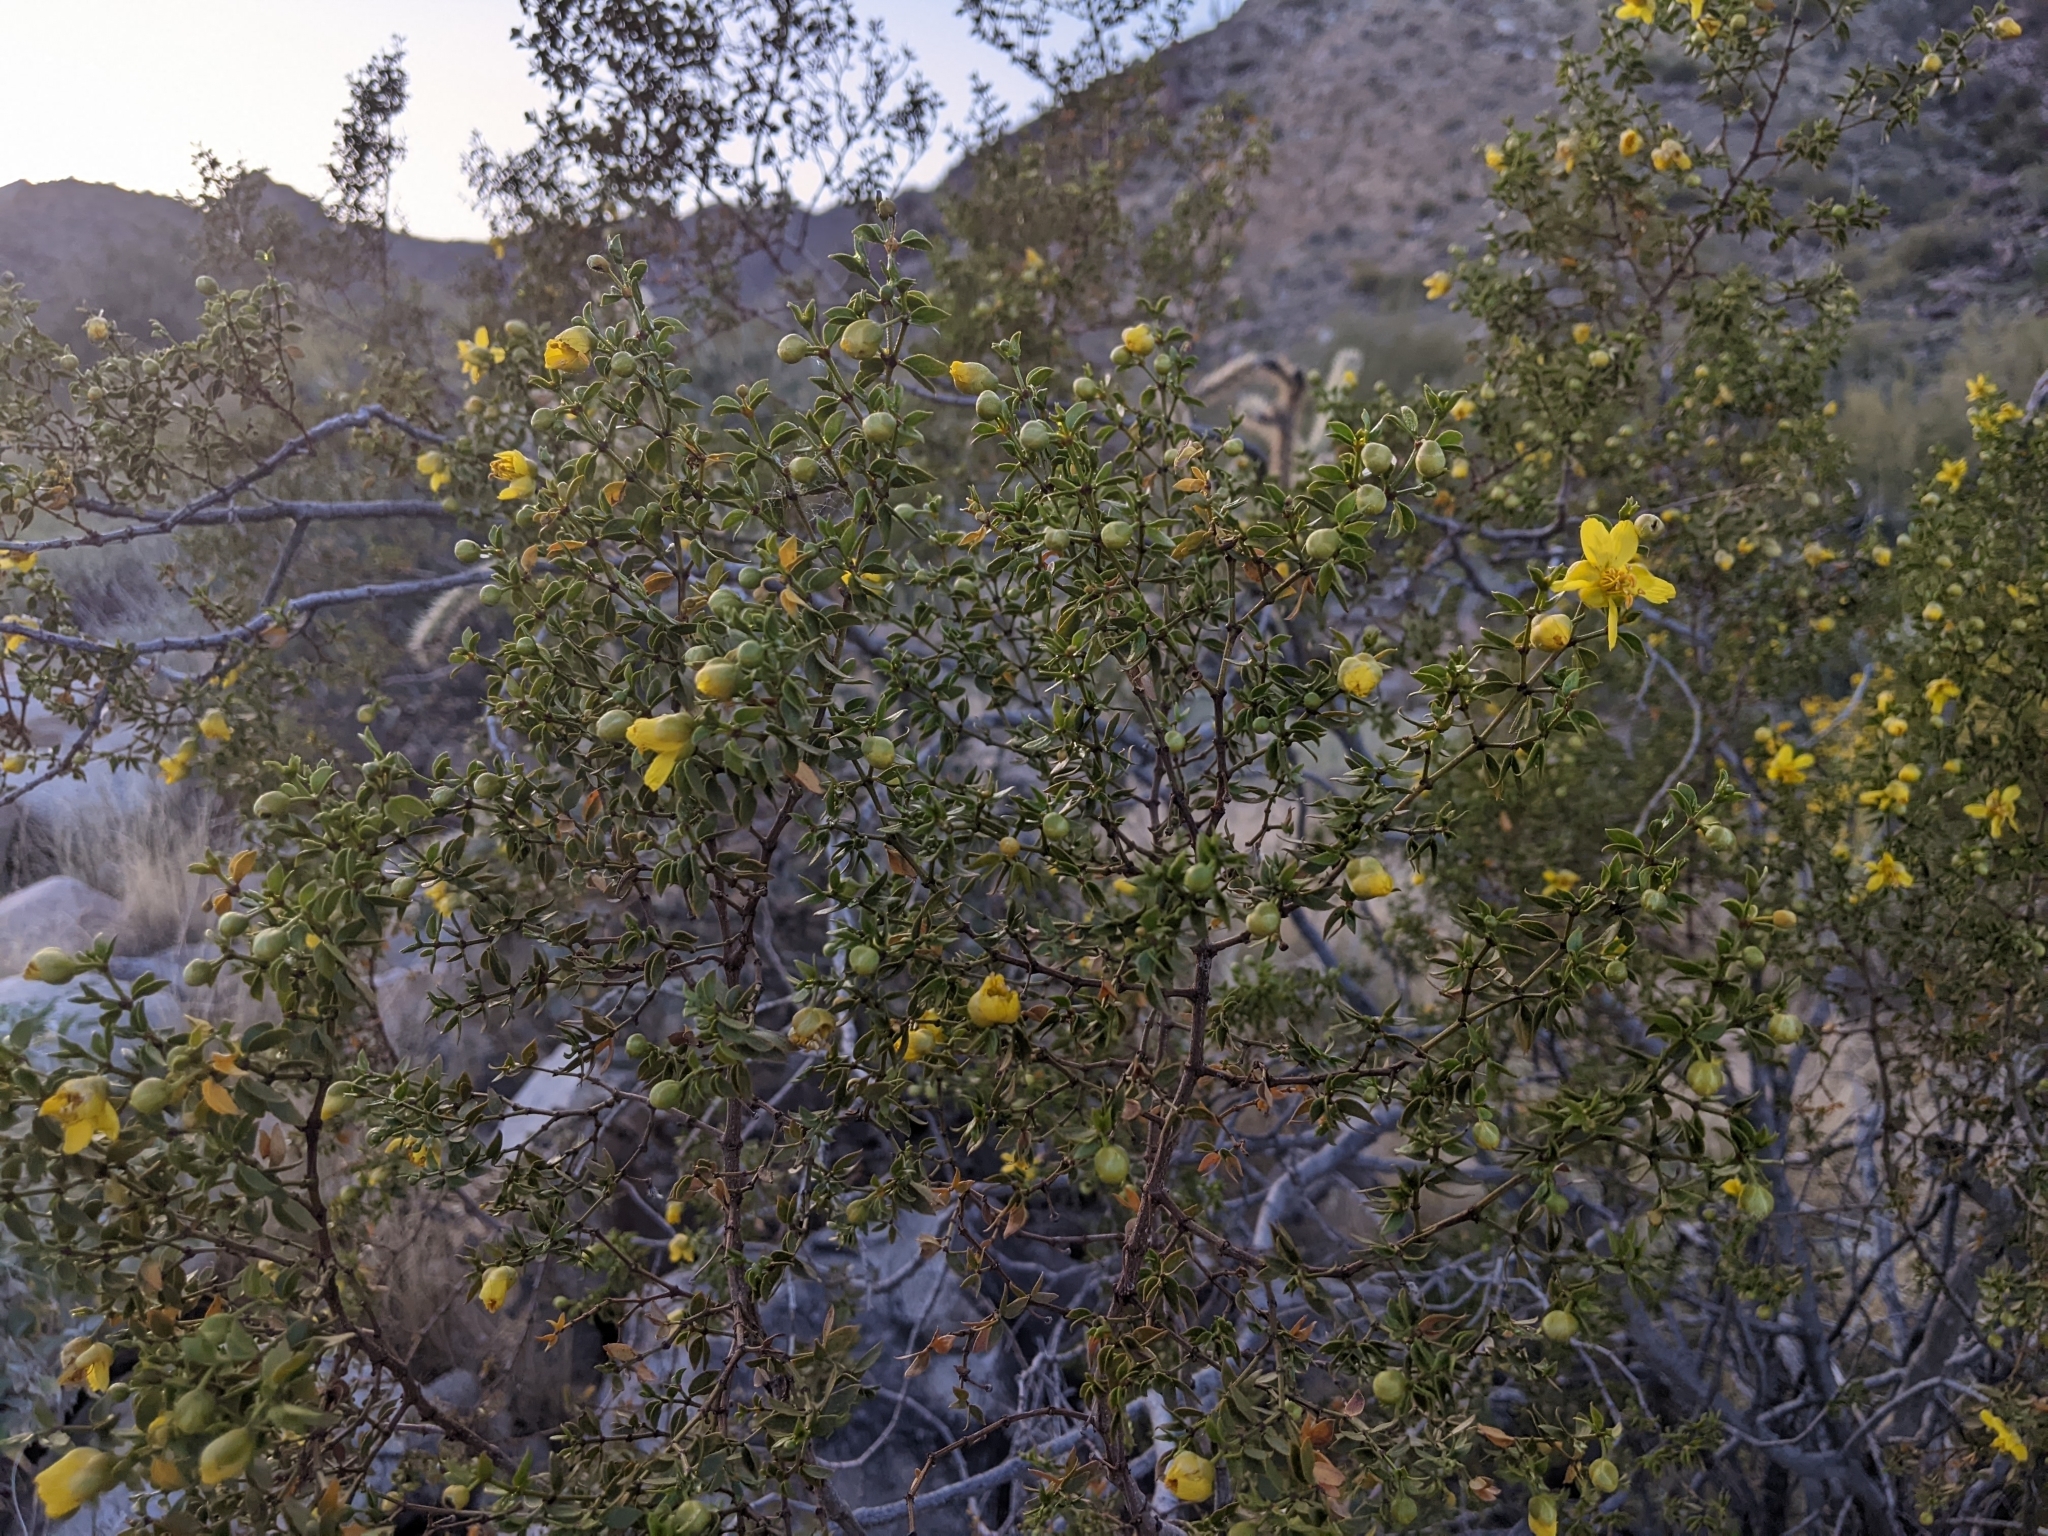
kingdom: Plantae
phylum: Tracheophyta
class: Magnoliopsida
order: Zygophyllales
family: Zygophyllaceae
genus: Larrea
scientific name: Larrea tridentata
